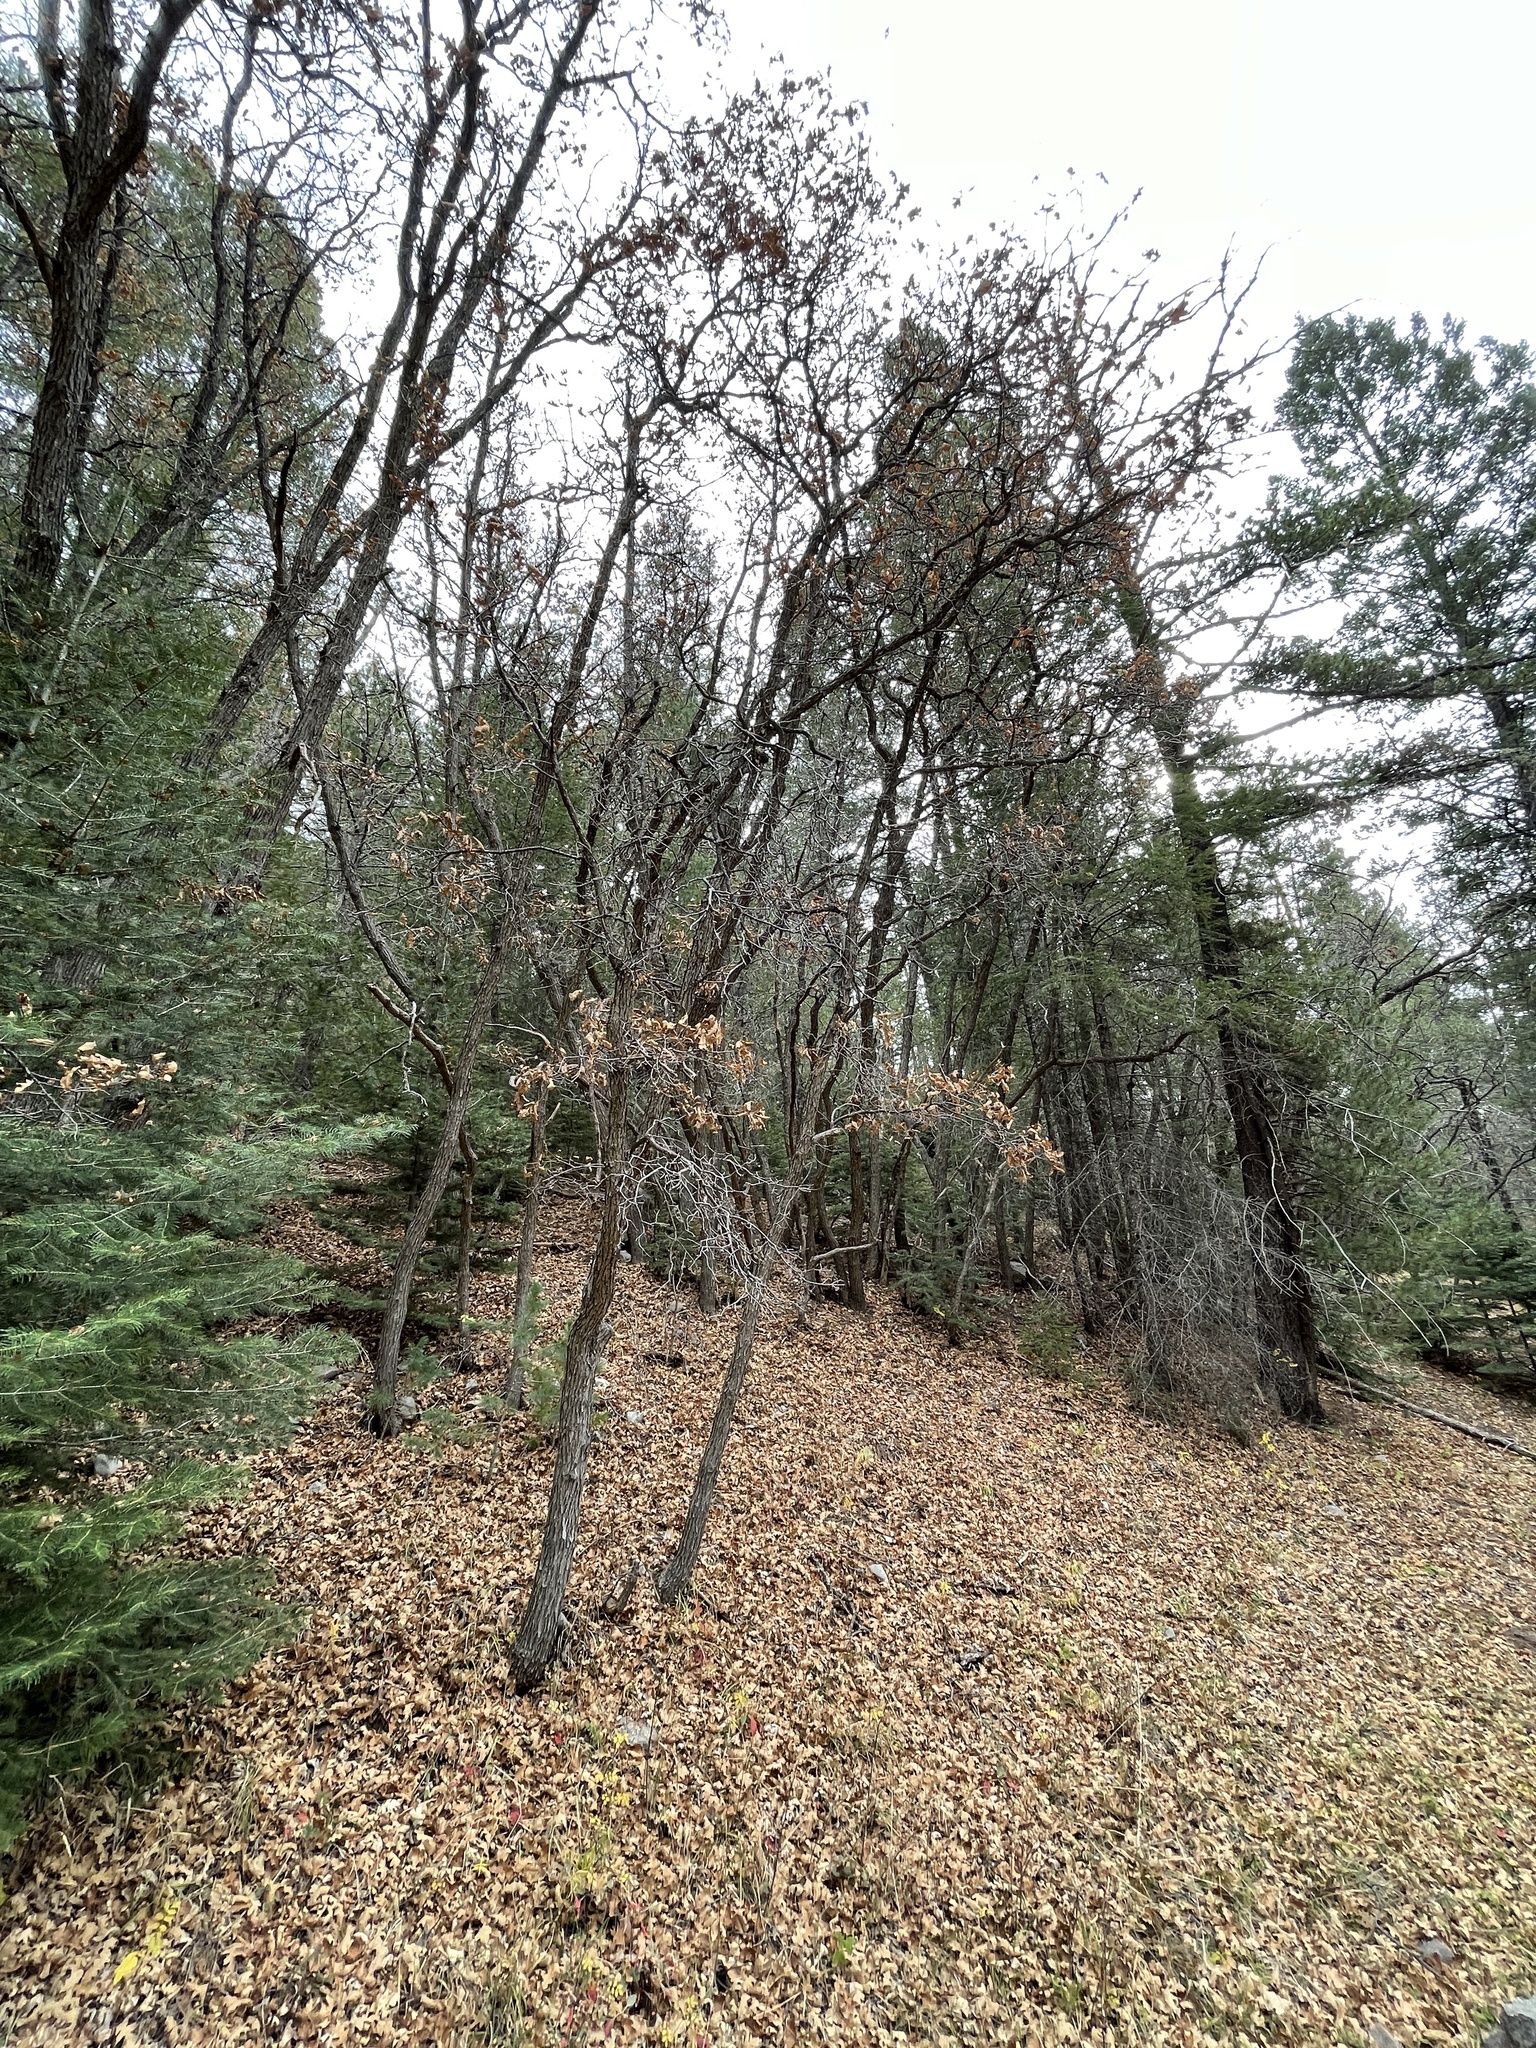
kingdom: Plantae
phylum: Tracheophyta
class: Magnoliopsida
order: Fagales
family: Fagaceae
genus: Quercus
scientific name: Quercus gambelii
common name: Gambel oak
